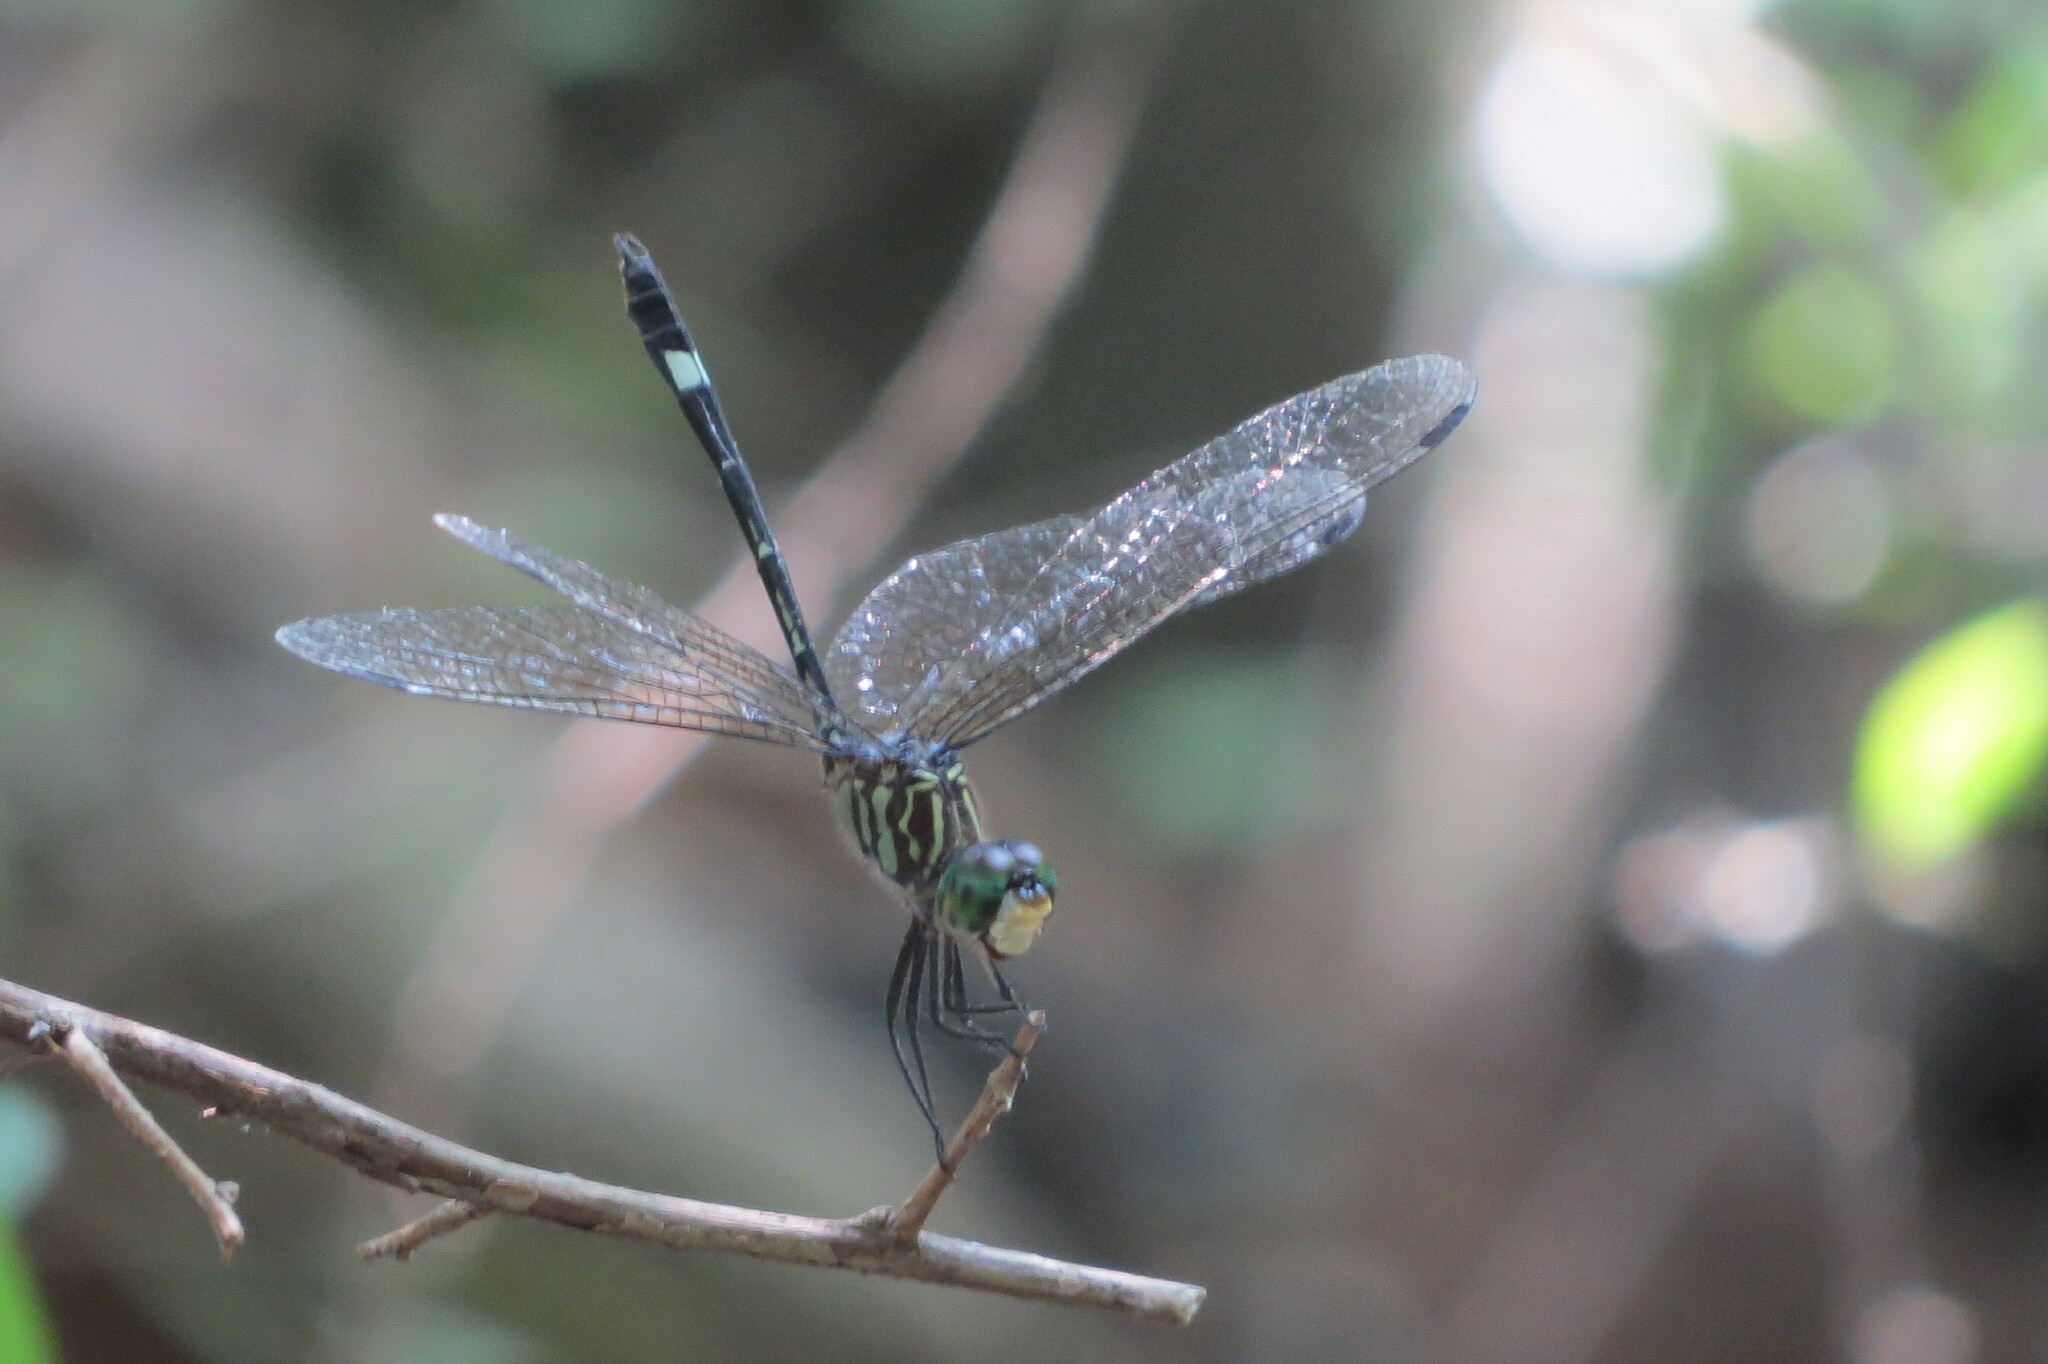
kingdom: Animalia
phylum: Arthropoda
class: Insecta
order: Odonata
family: Libellulidae
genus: Micrathyria
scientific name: Micrathyria didyma
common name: Three-striped dasher
